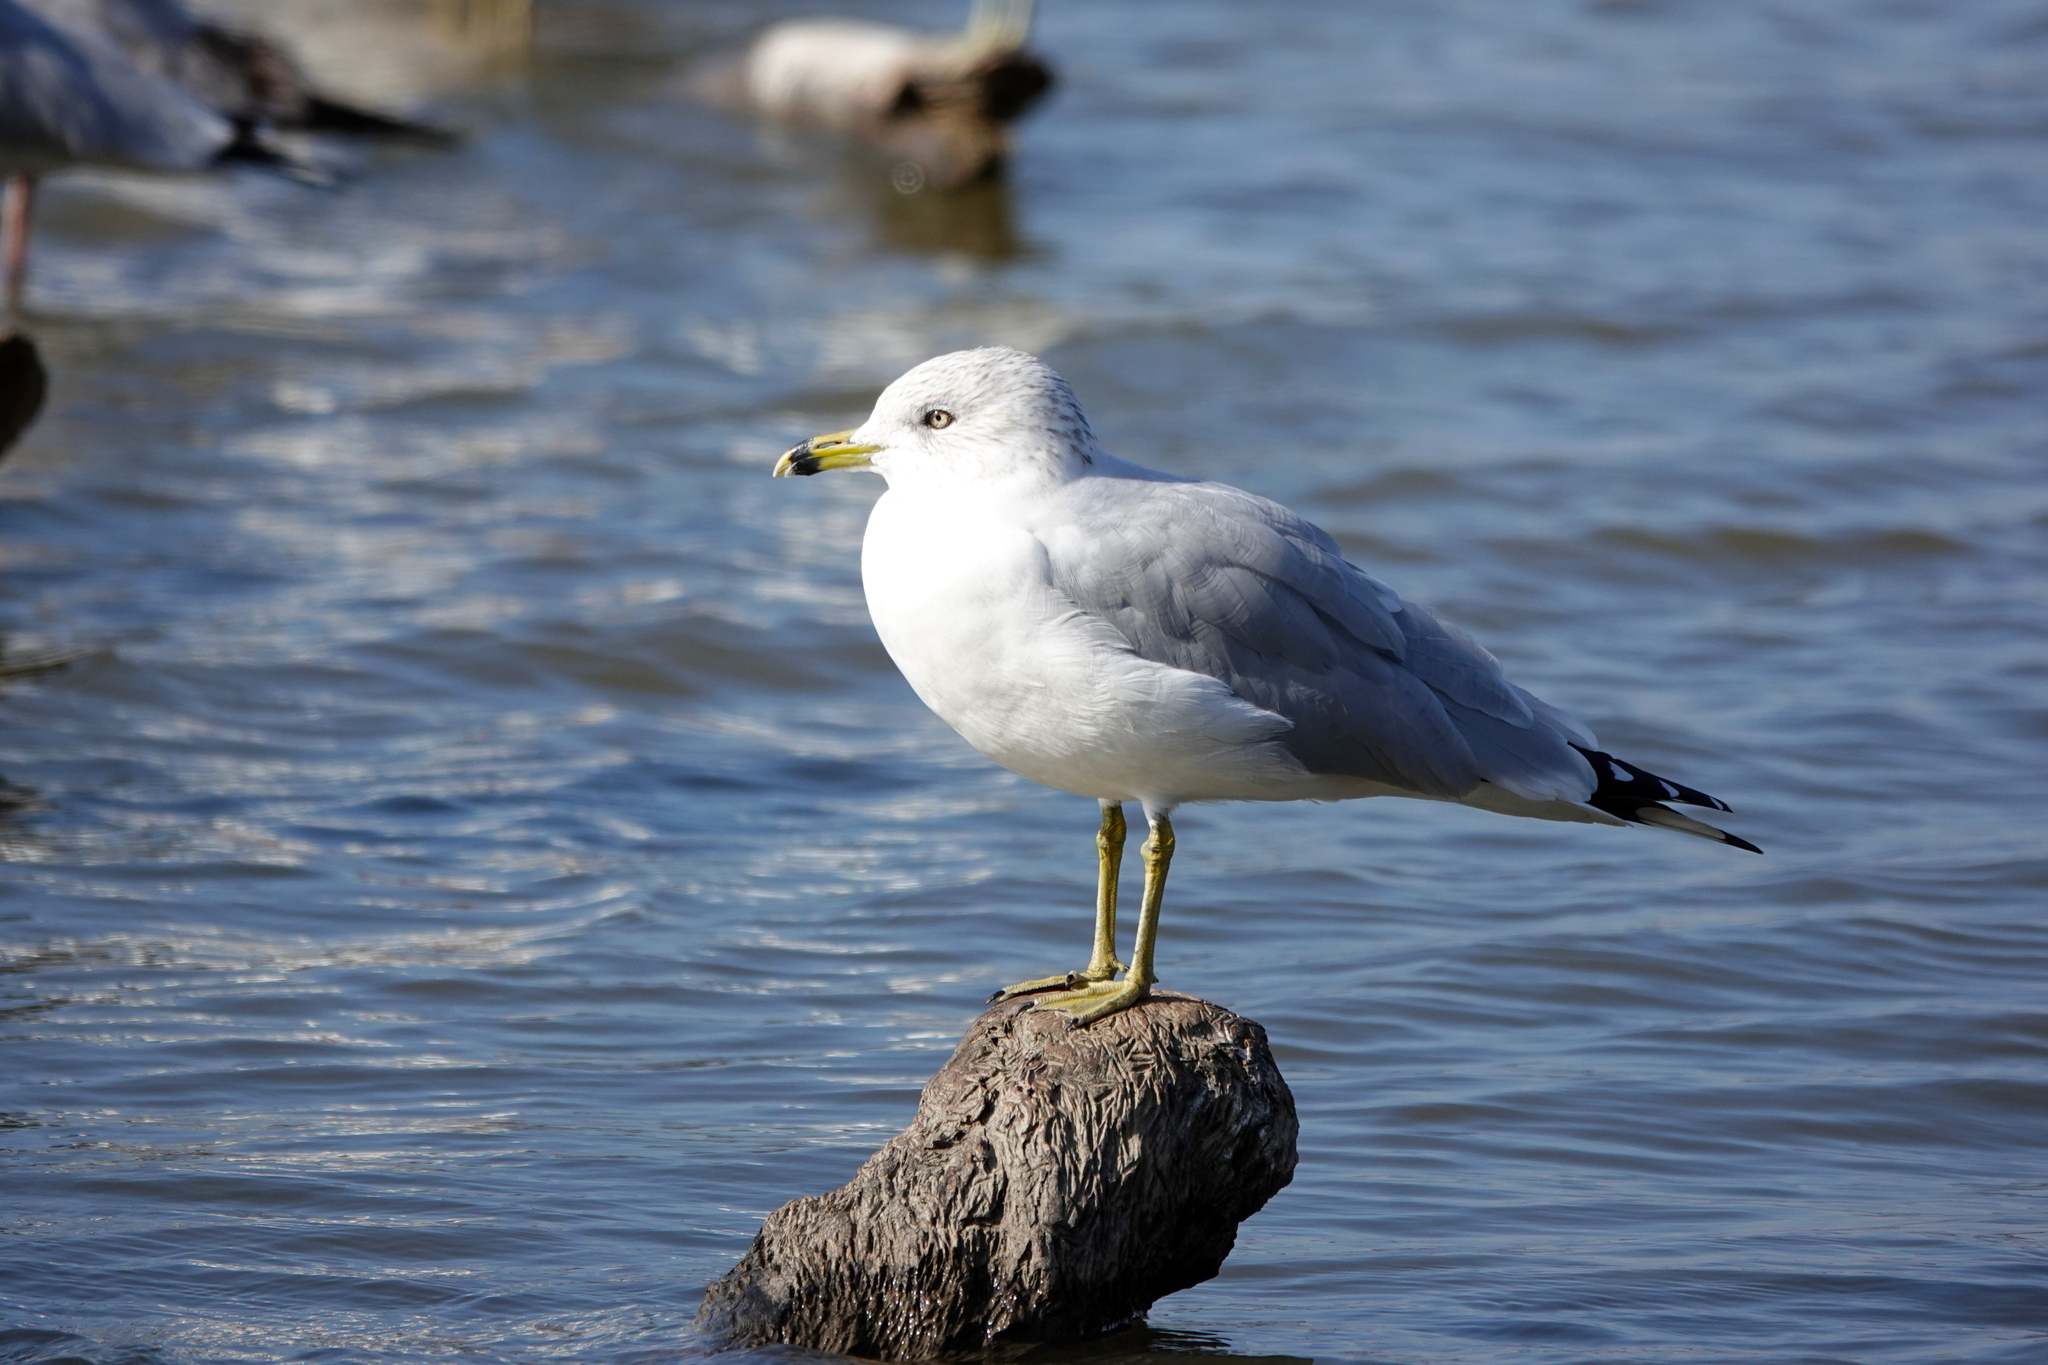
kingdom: Animalia
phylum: Chordata
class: Aves
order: Charadriiformes
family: Laridae
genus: Larus
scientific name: Larus delawarensis
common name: Ring-billed gull
